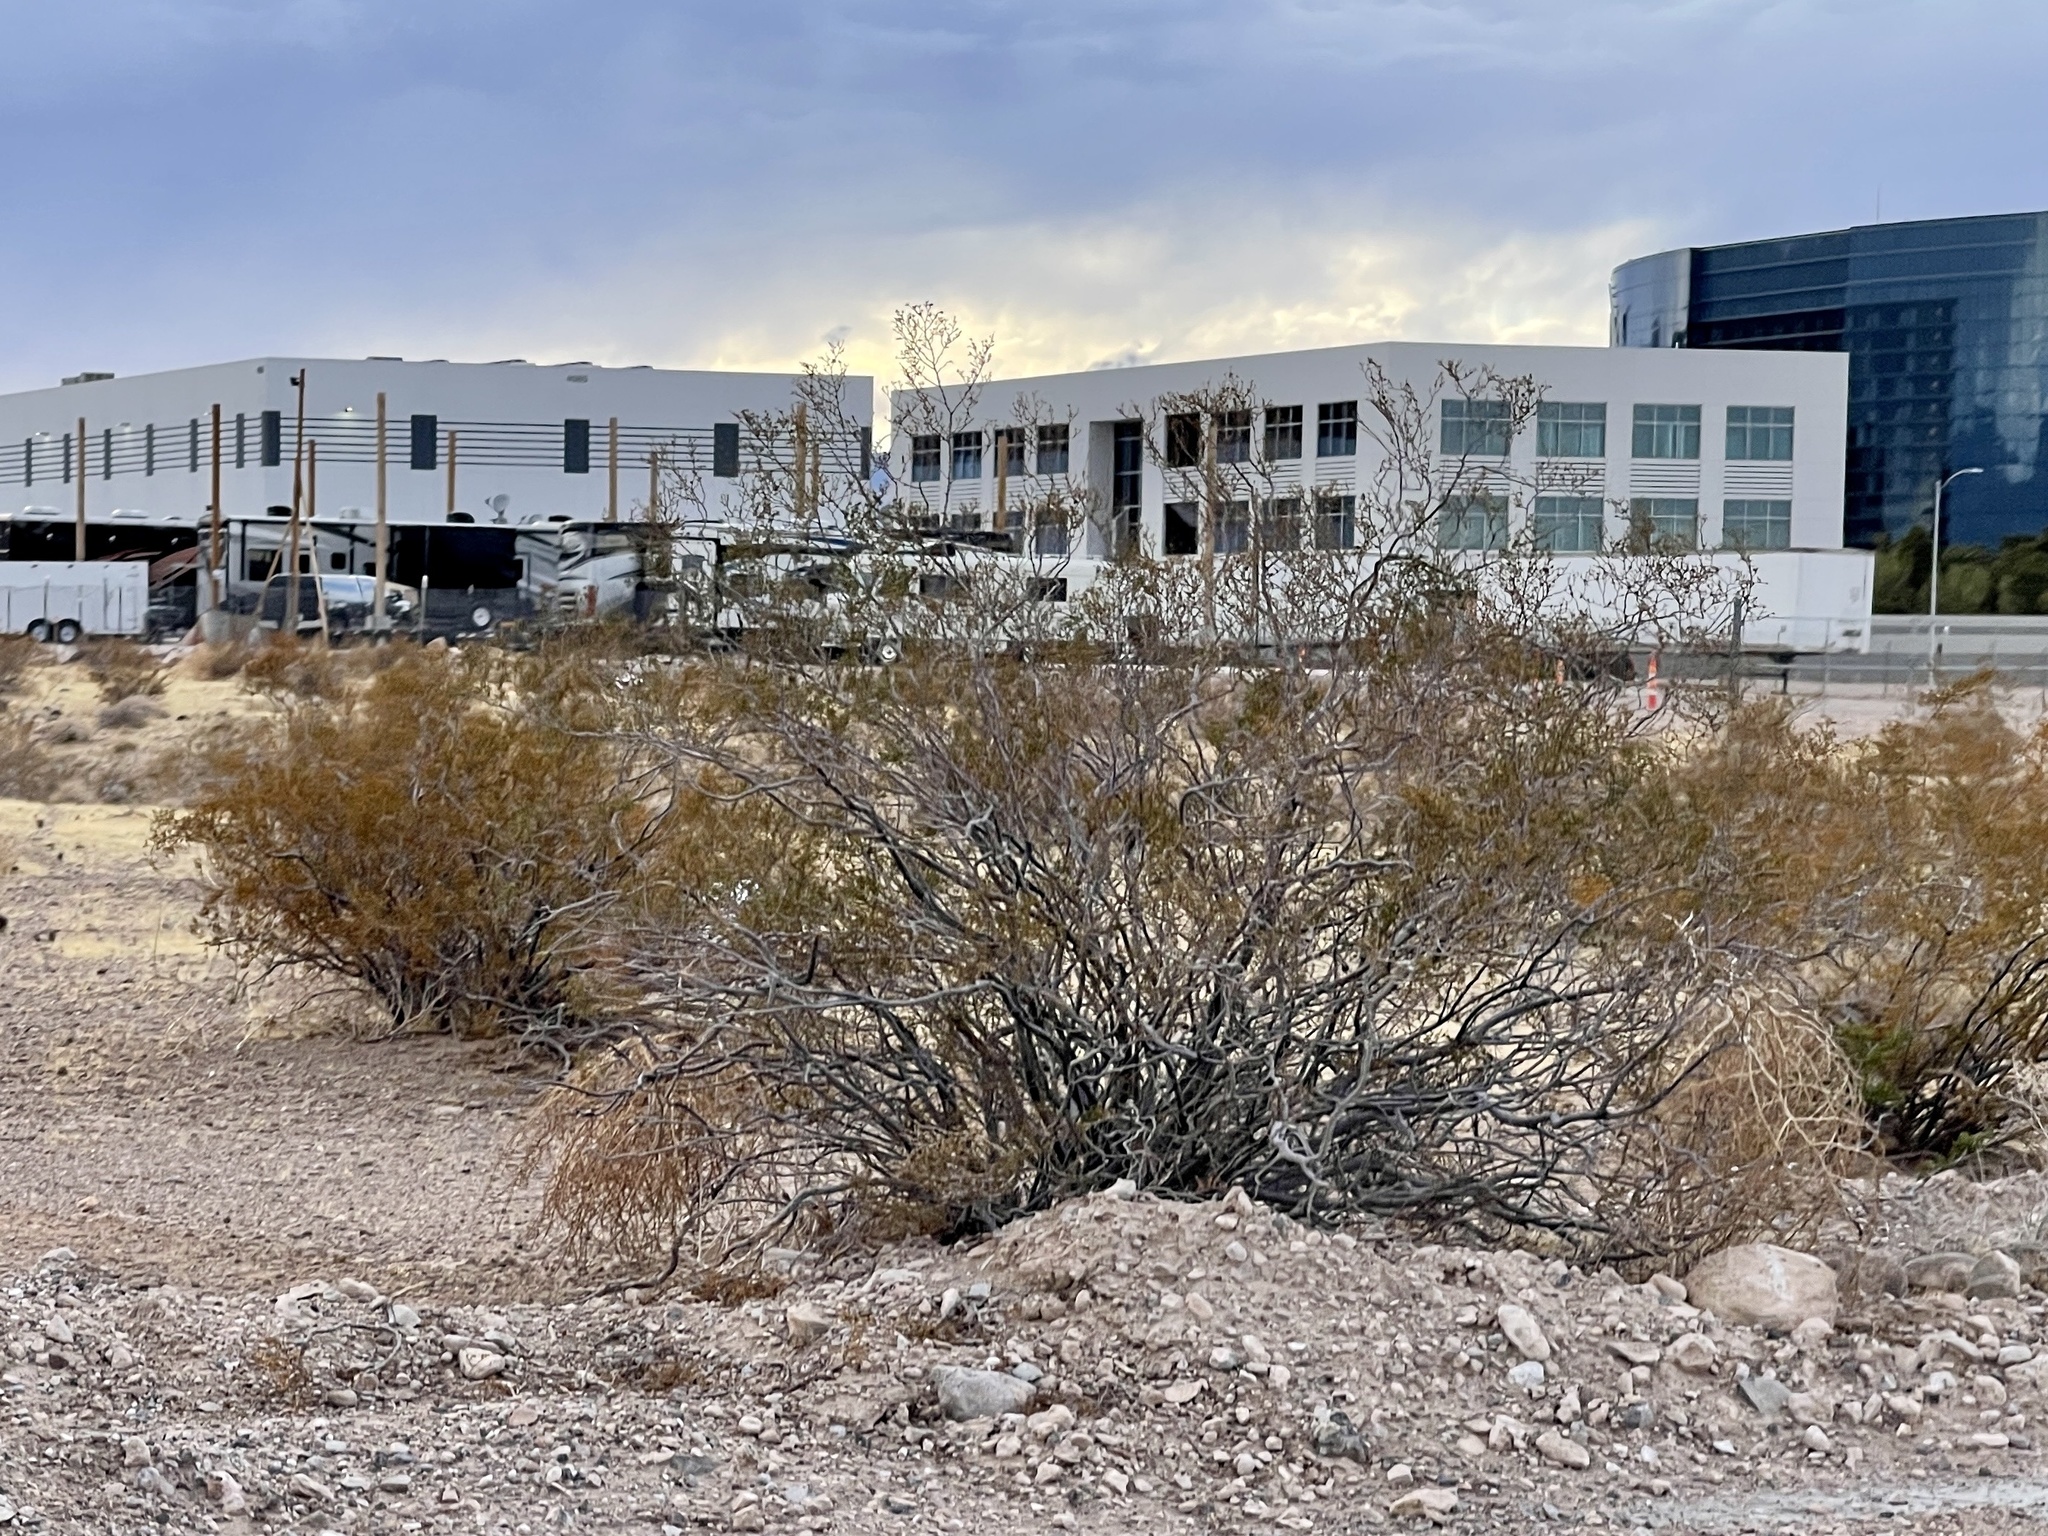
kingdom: Plantae
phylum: Tracheophyta
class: Magnoliopsida
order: Zygophyllales
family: Zygophyllaceae
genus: Larrea
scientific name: Larrea tridentata
